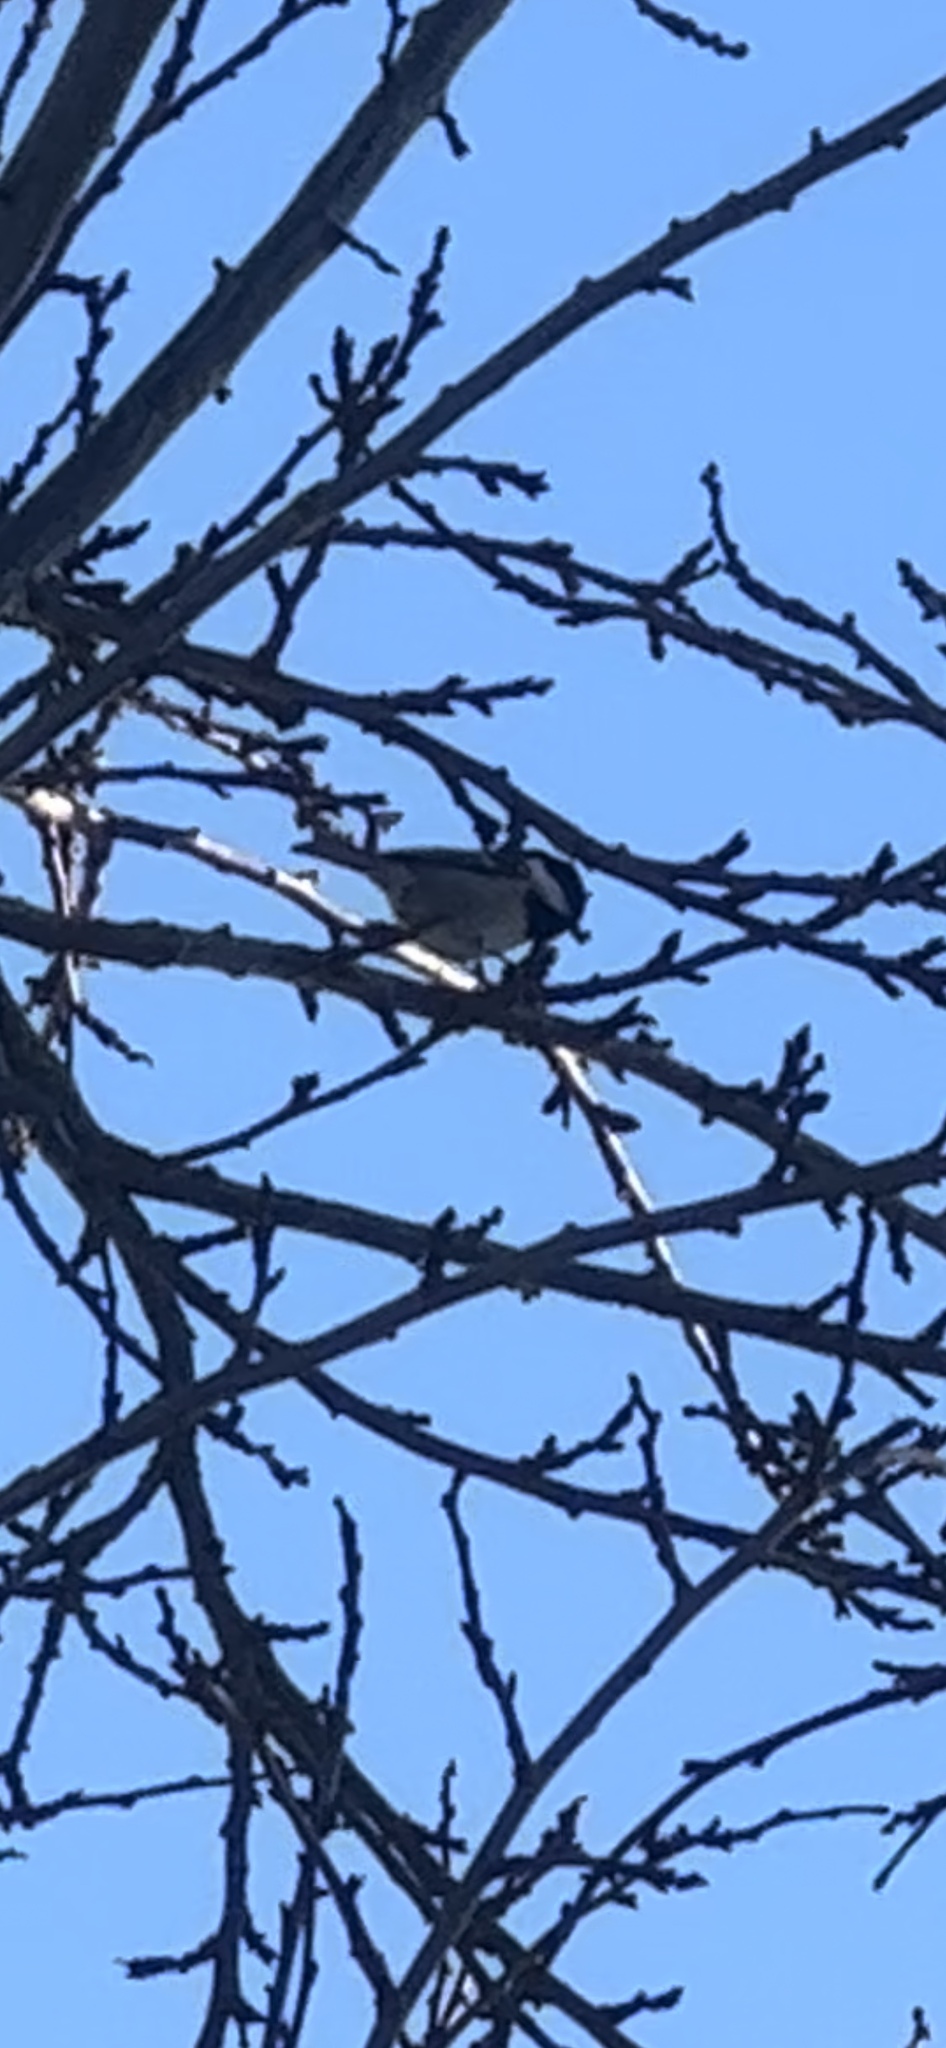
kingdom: Animalia
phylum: Chordata
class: Aves
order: Passeriformes
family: Paridae
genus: Periparus
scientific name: Periparus ater
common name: Coal tit
